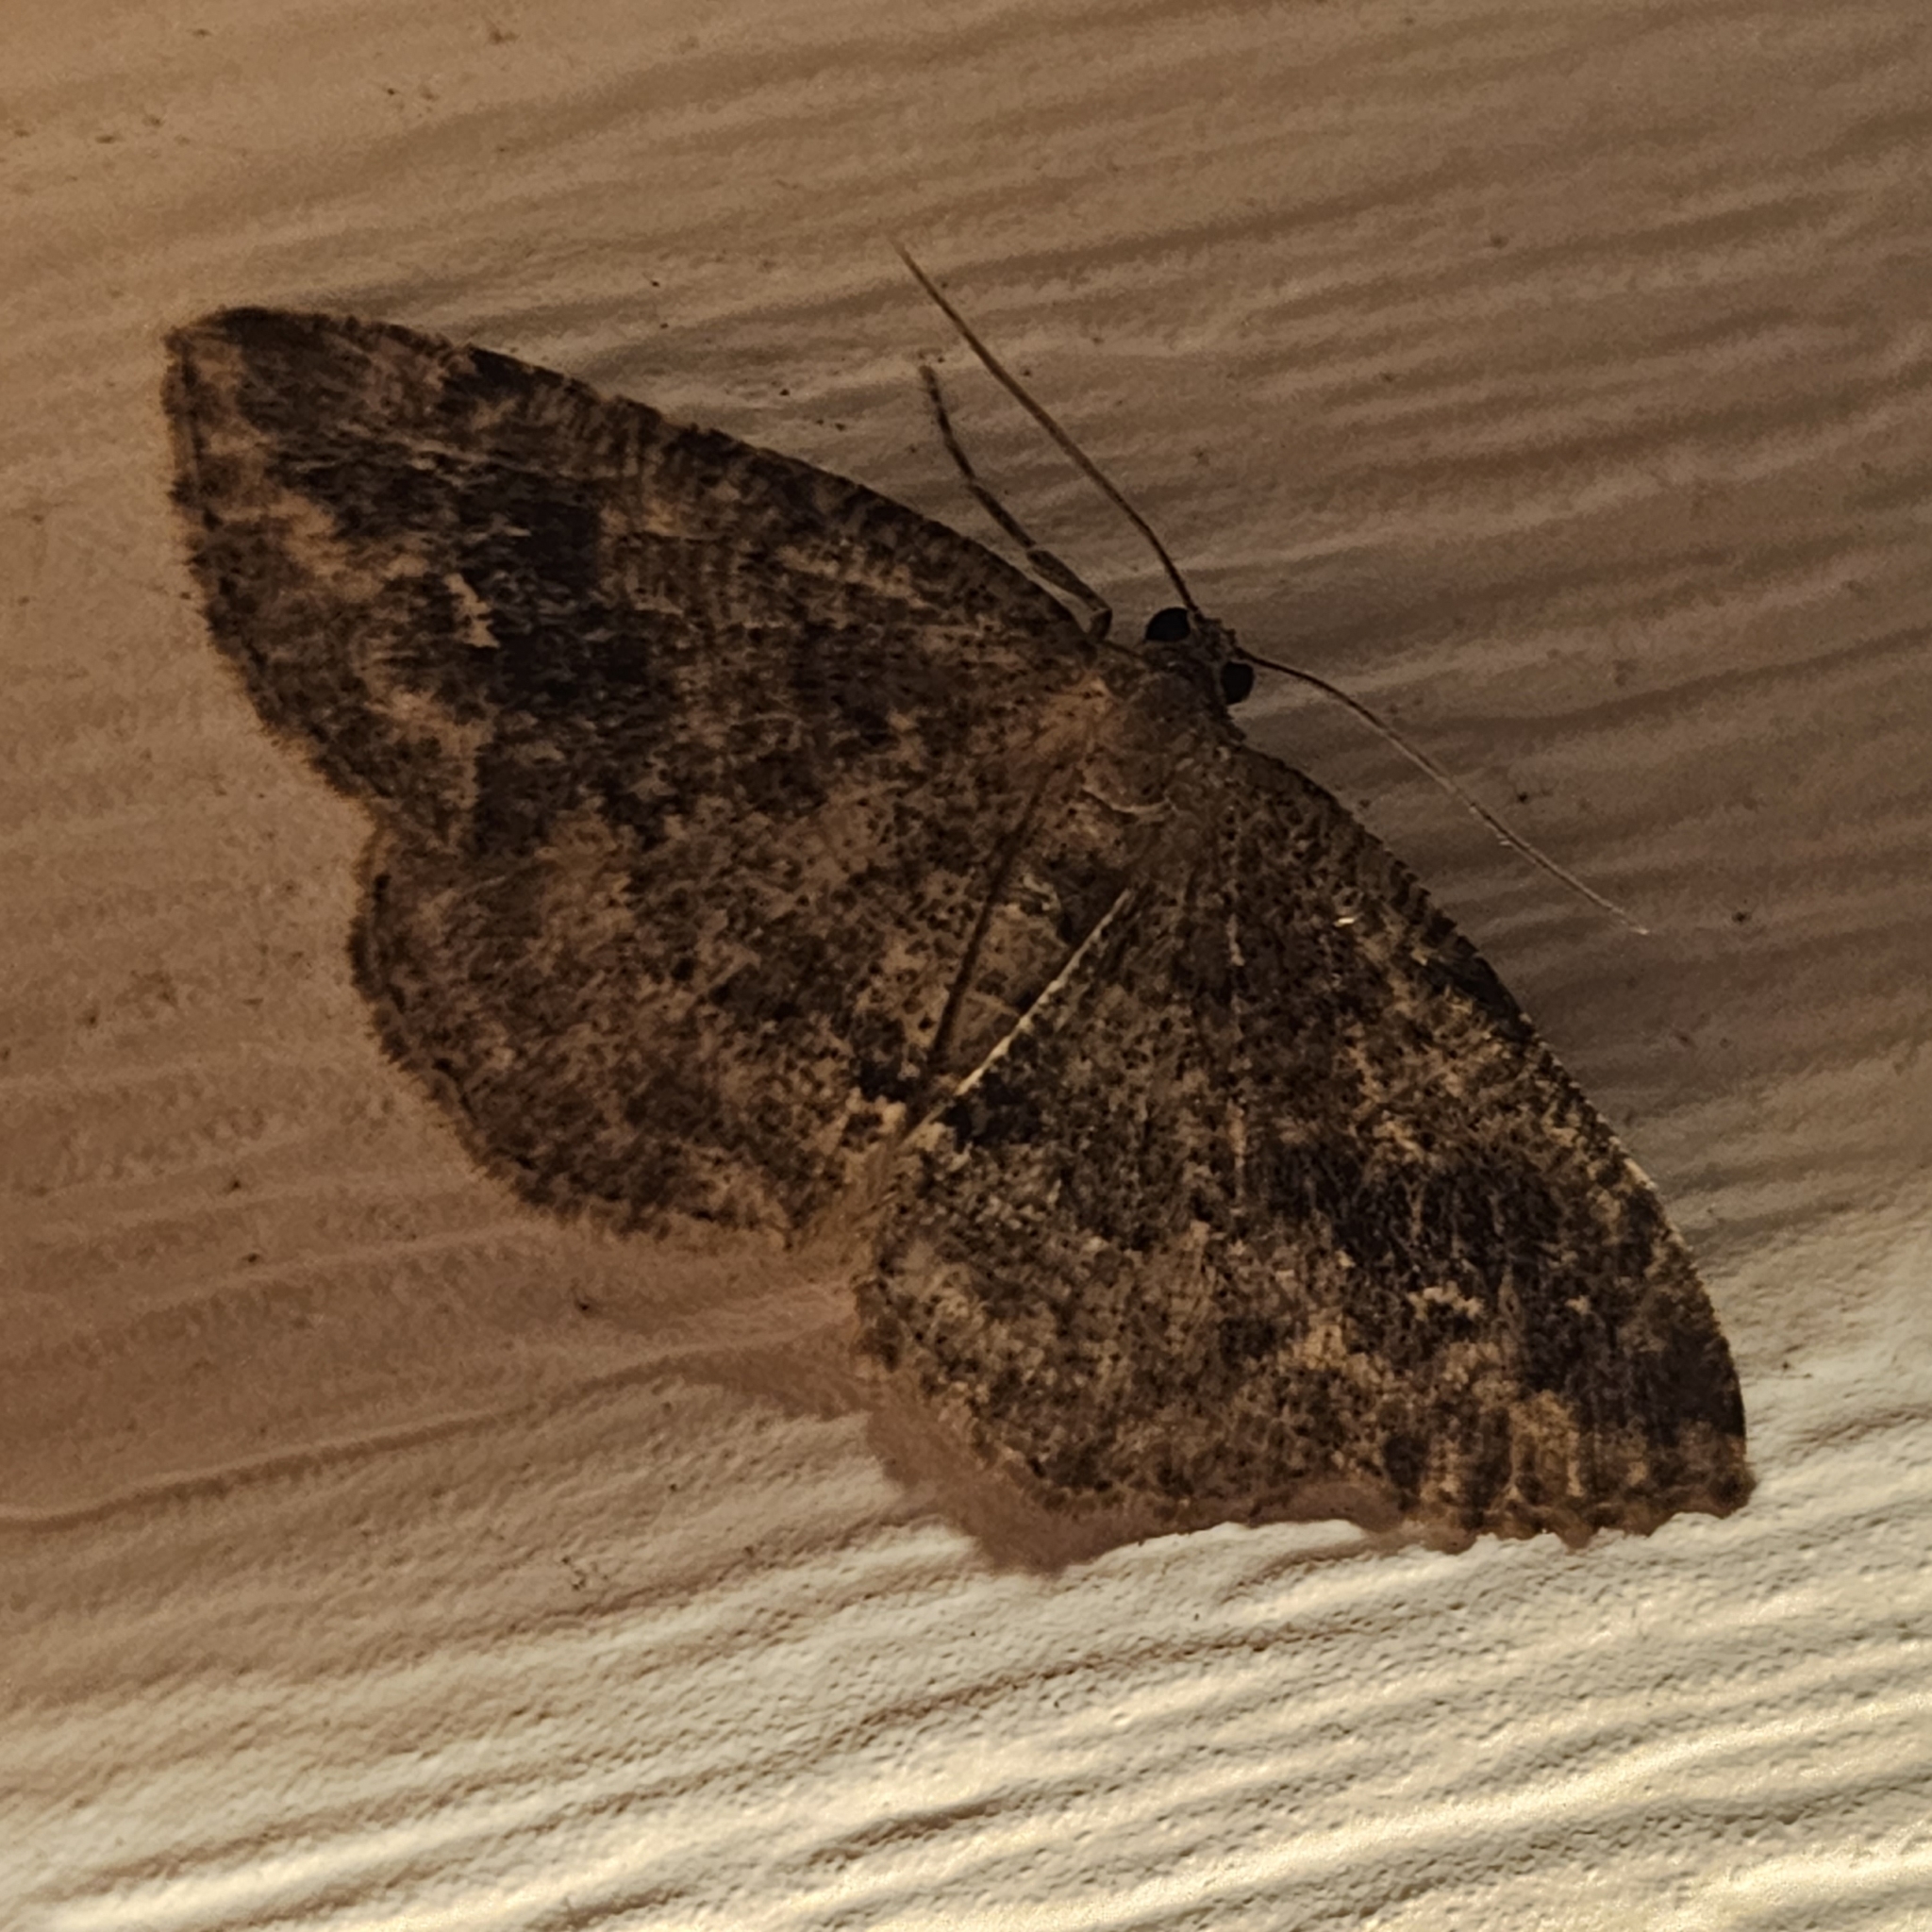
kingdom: Animalia
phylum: Arthropoda
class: Insecta
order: Lepidoptera
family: Geometridae
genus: Homochlodes
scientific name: Homochlodes fritillaria
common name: Pale homochlodes
